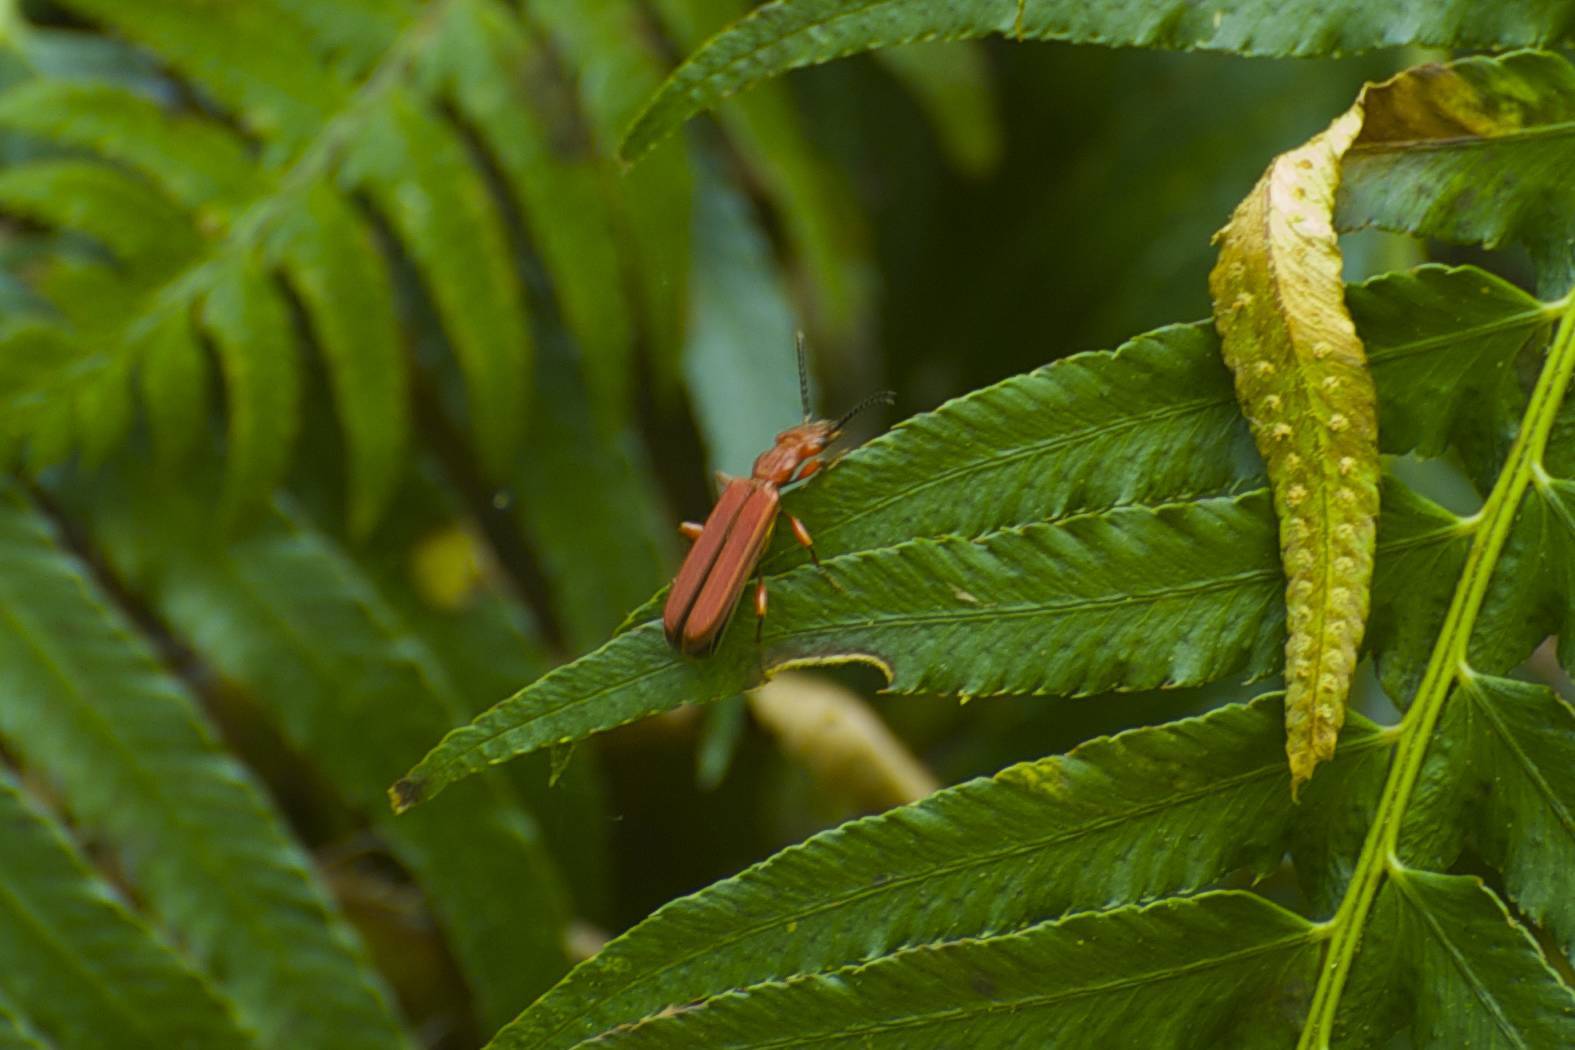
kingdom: Animalia
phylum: Arthropoda
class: Insecta
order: Coleoptera
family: Cucujidae
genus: Cucujus
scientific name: Cucujus clavipes
